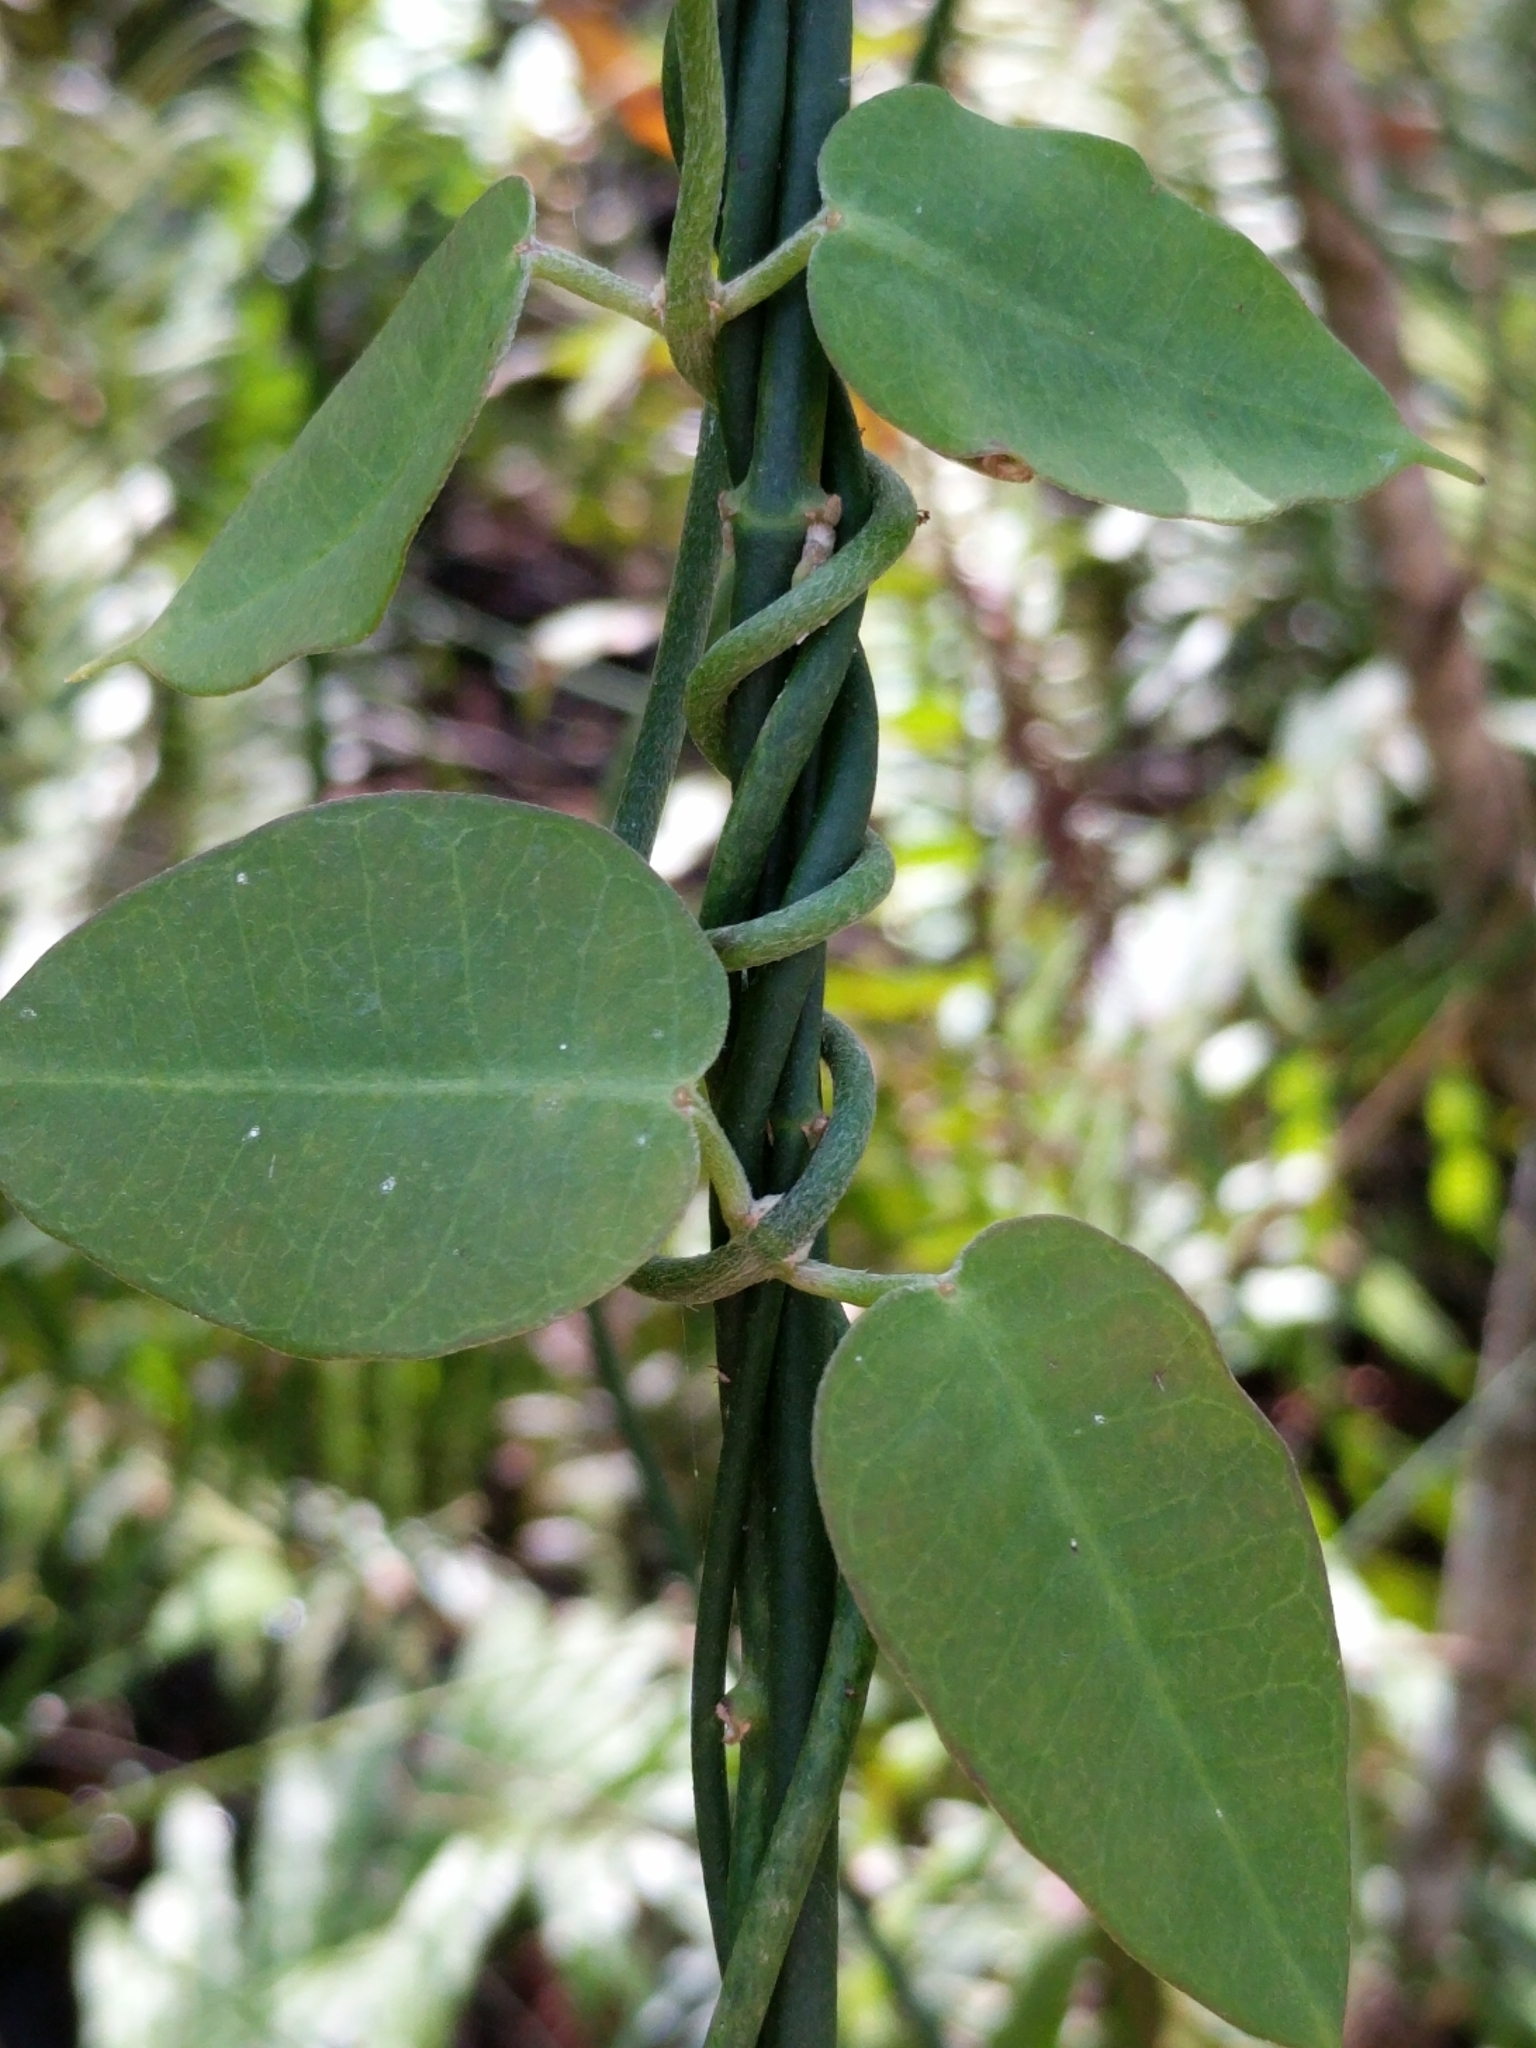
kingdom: Plantae
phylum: Tracheophyta
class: Magnoliopsida
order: Gentianales
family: Apocynaceae
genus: Funastrum
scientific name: Funastrum clausum
